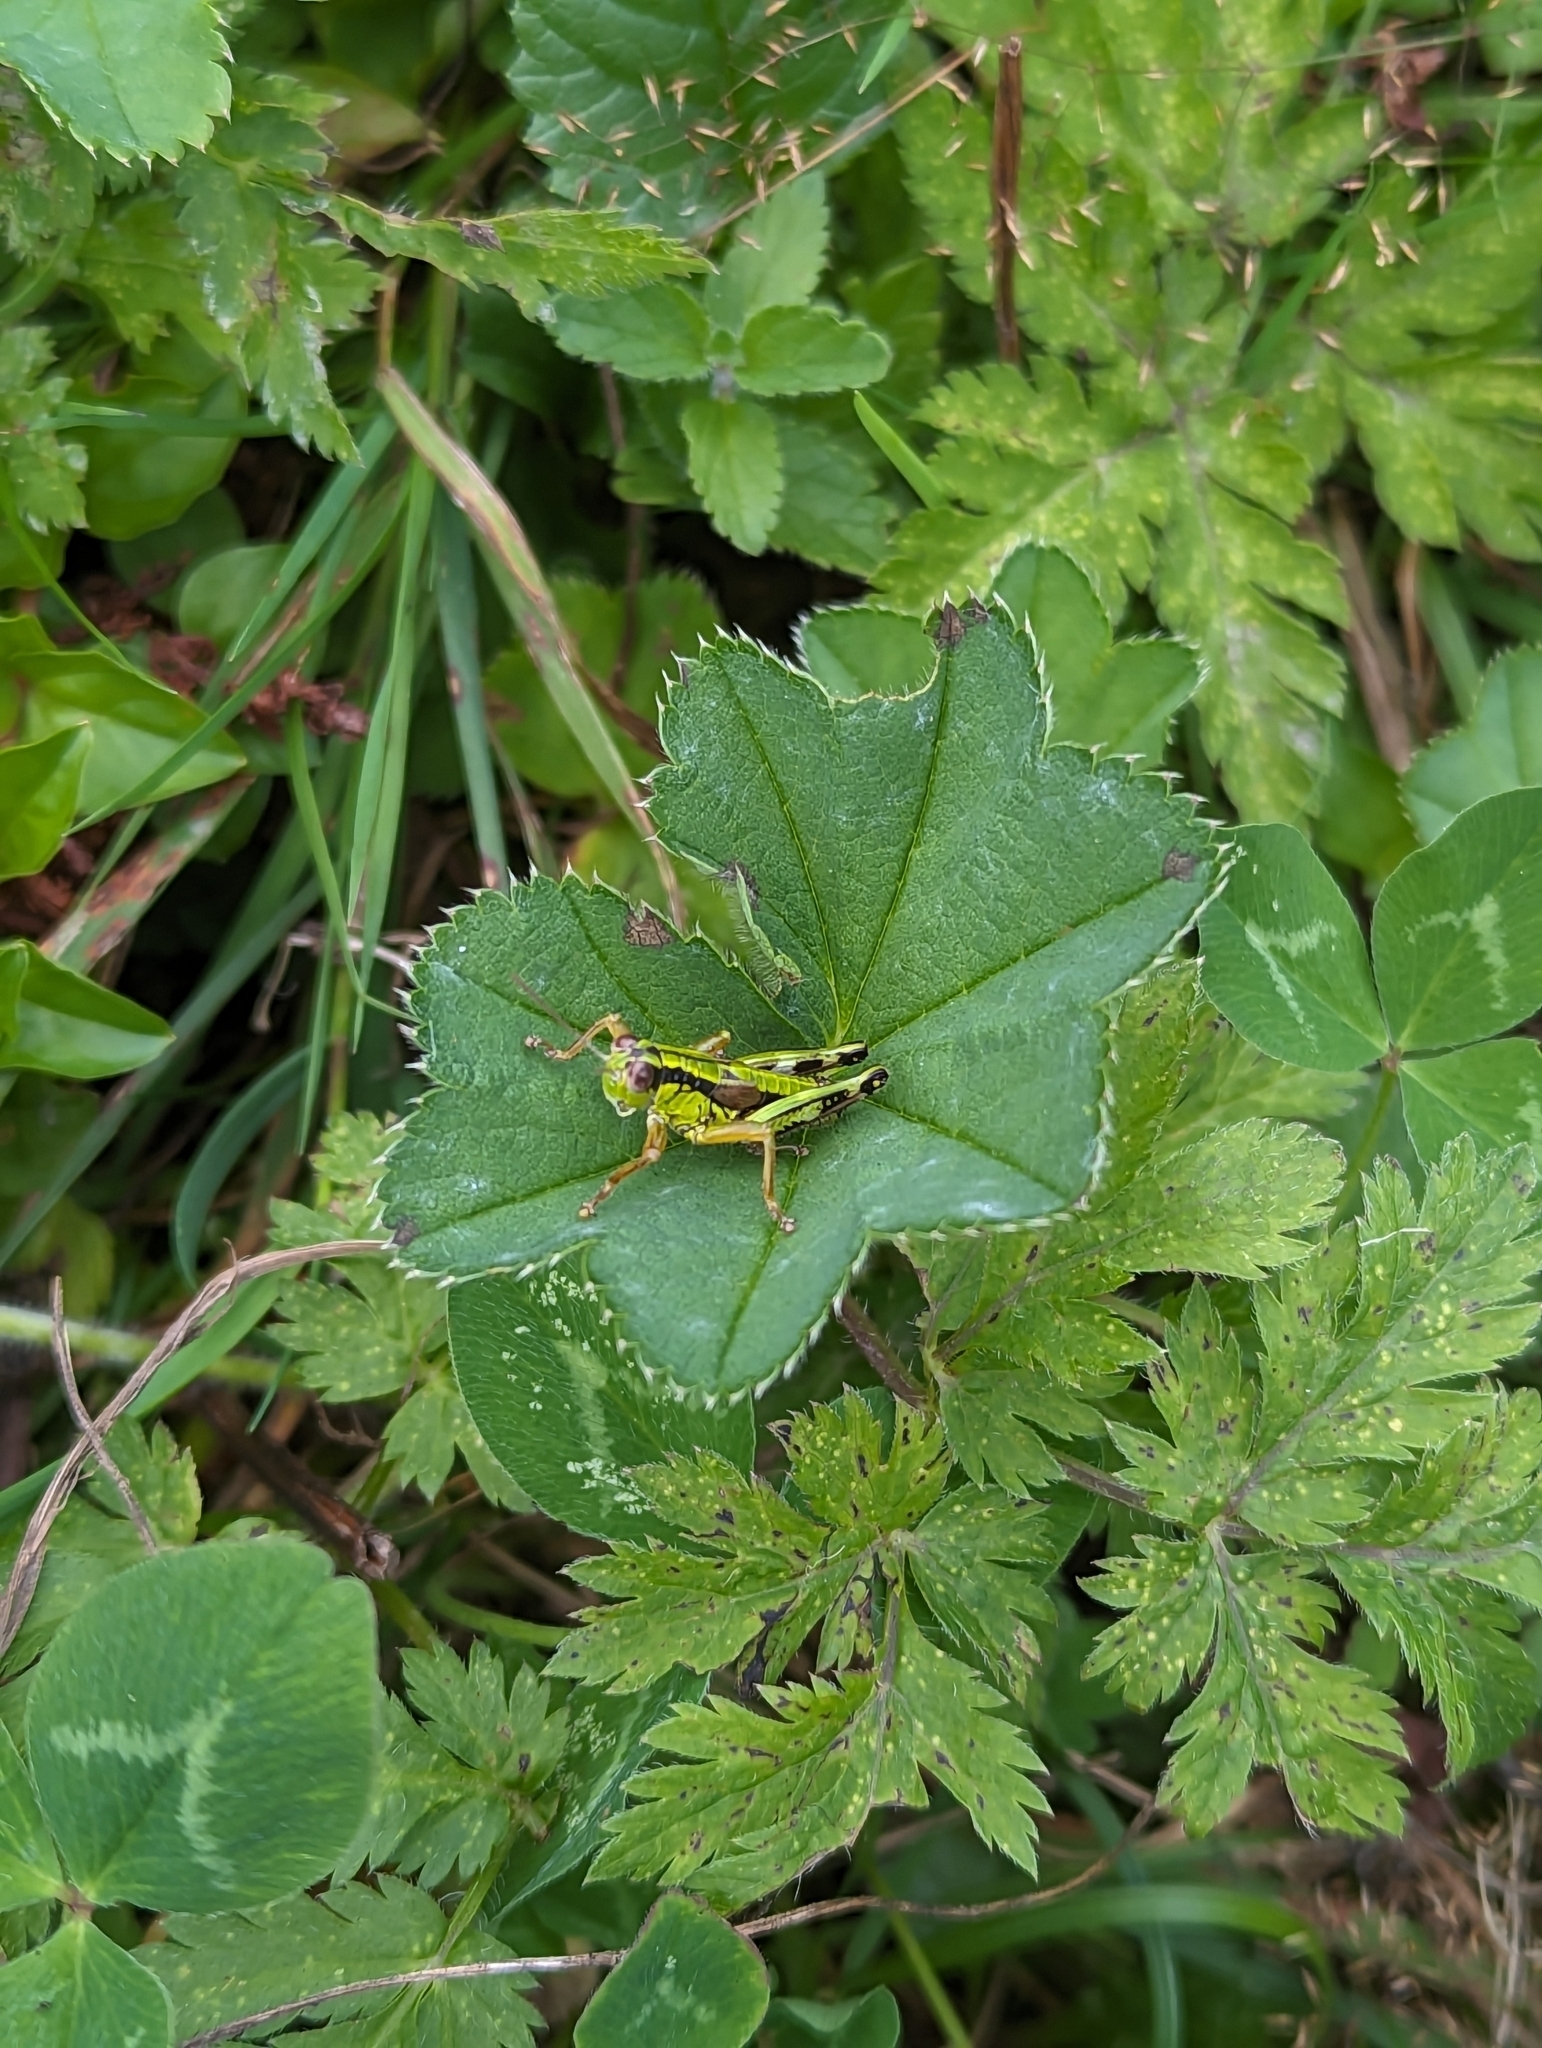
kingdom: Animalia
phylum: Arthropoda
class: Insecta
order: Orthoptera
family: Acrididae
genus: Miramella
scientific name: Miramella alpina
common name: Green mountain grasshopper
